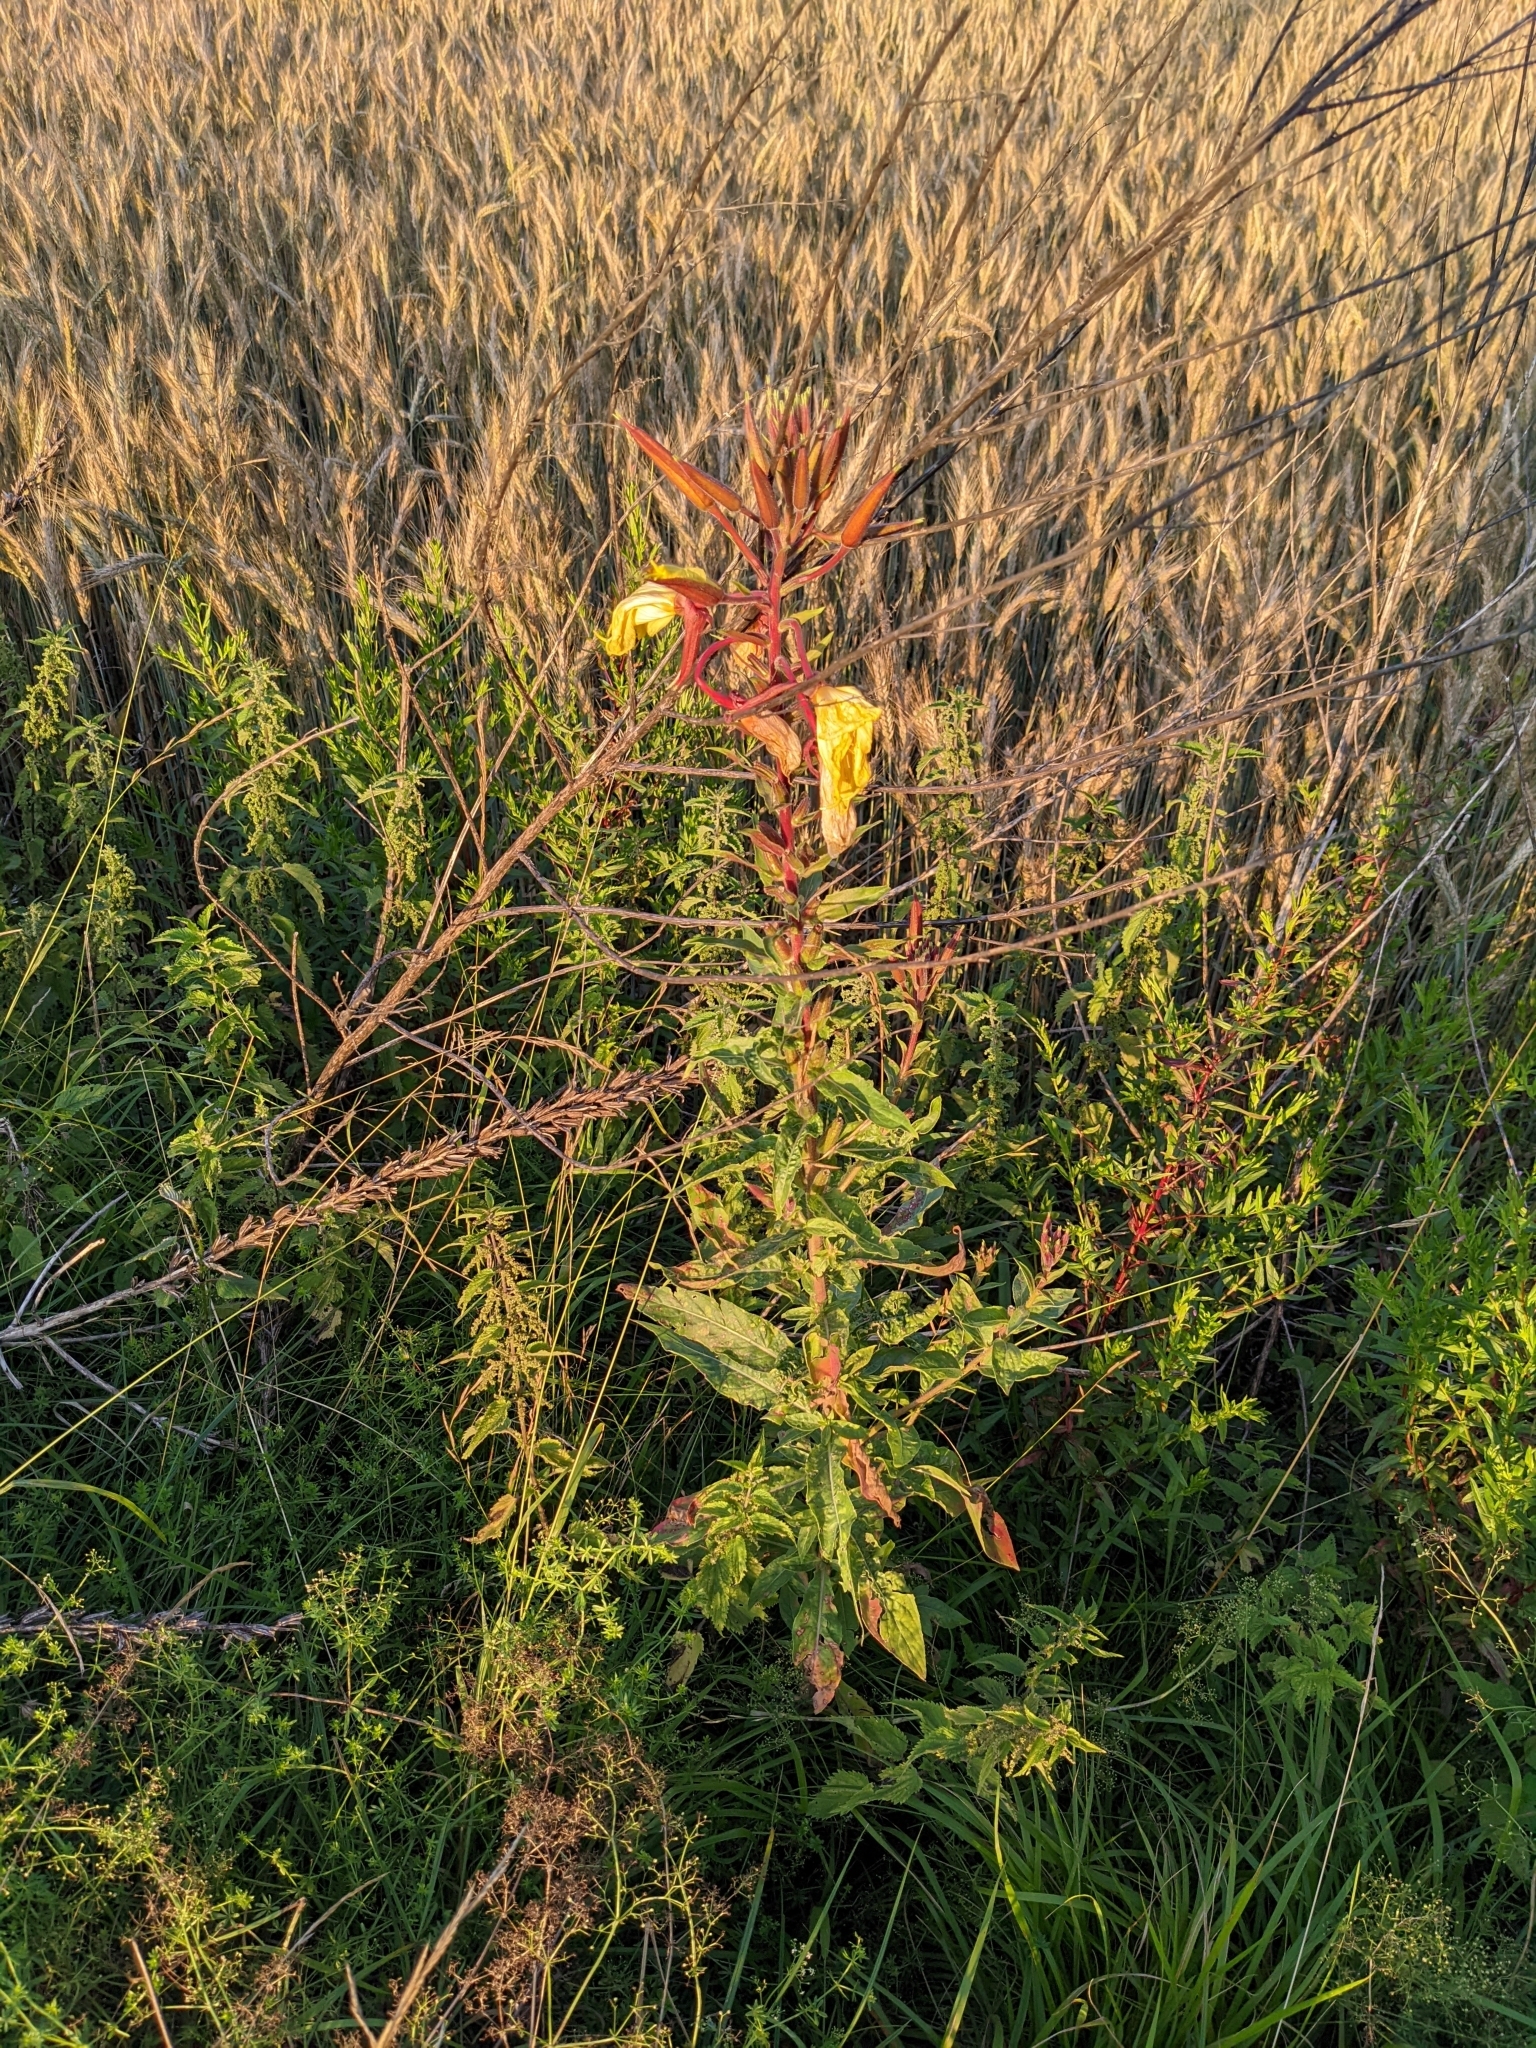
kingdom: Plantae
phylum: Tracheophyta
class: Magnoliopsida
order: Myrtales
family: Onagraceae
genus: Oenothera
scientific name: Oenothera glazioviana
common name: Large-flowered evening-primrose
